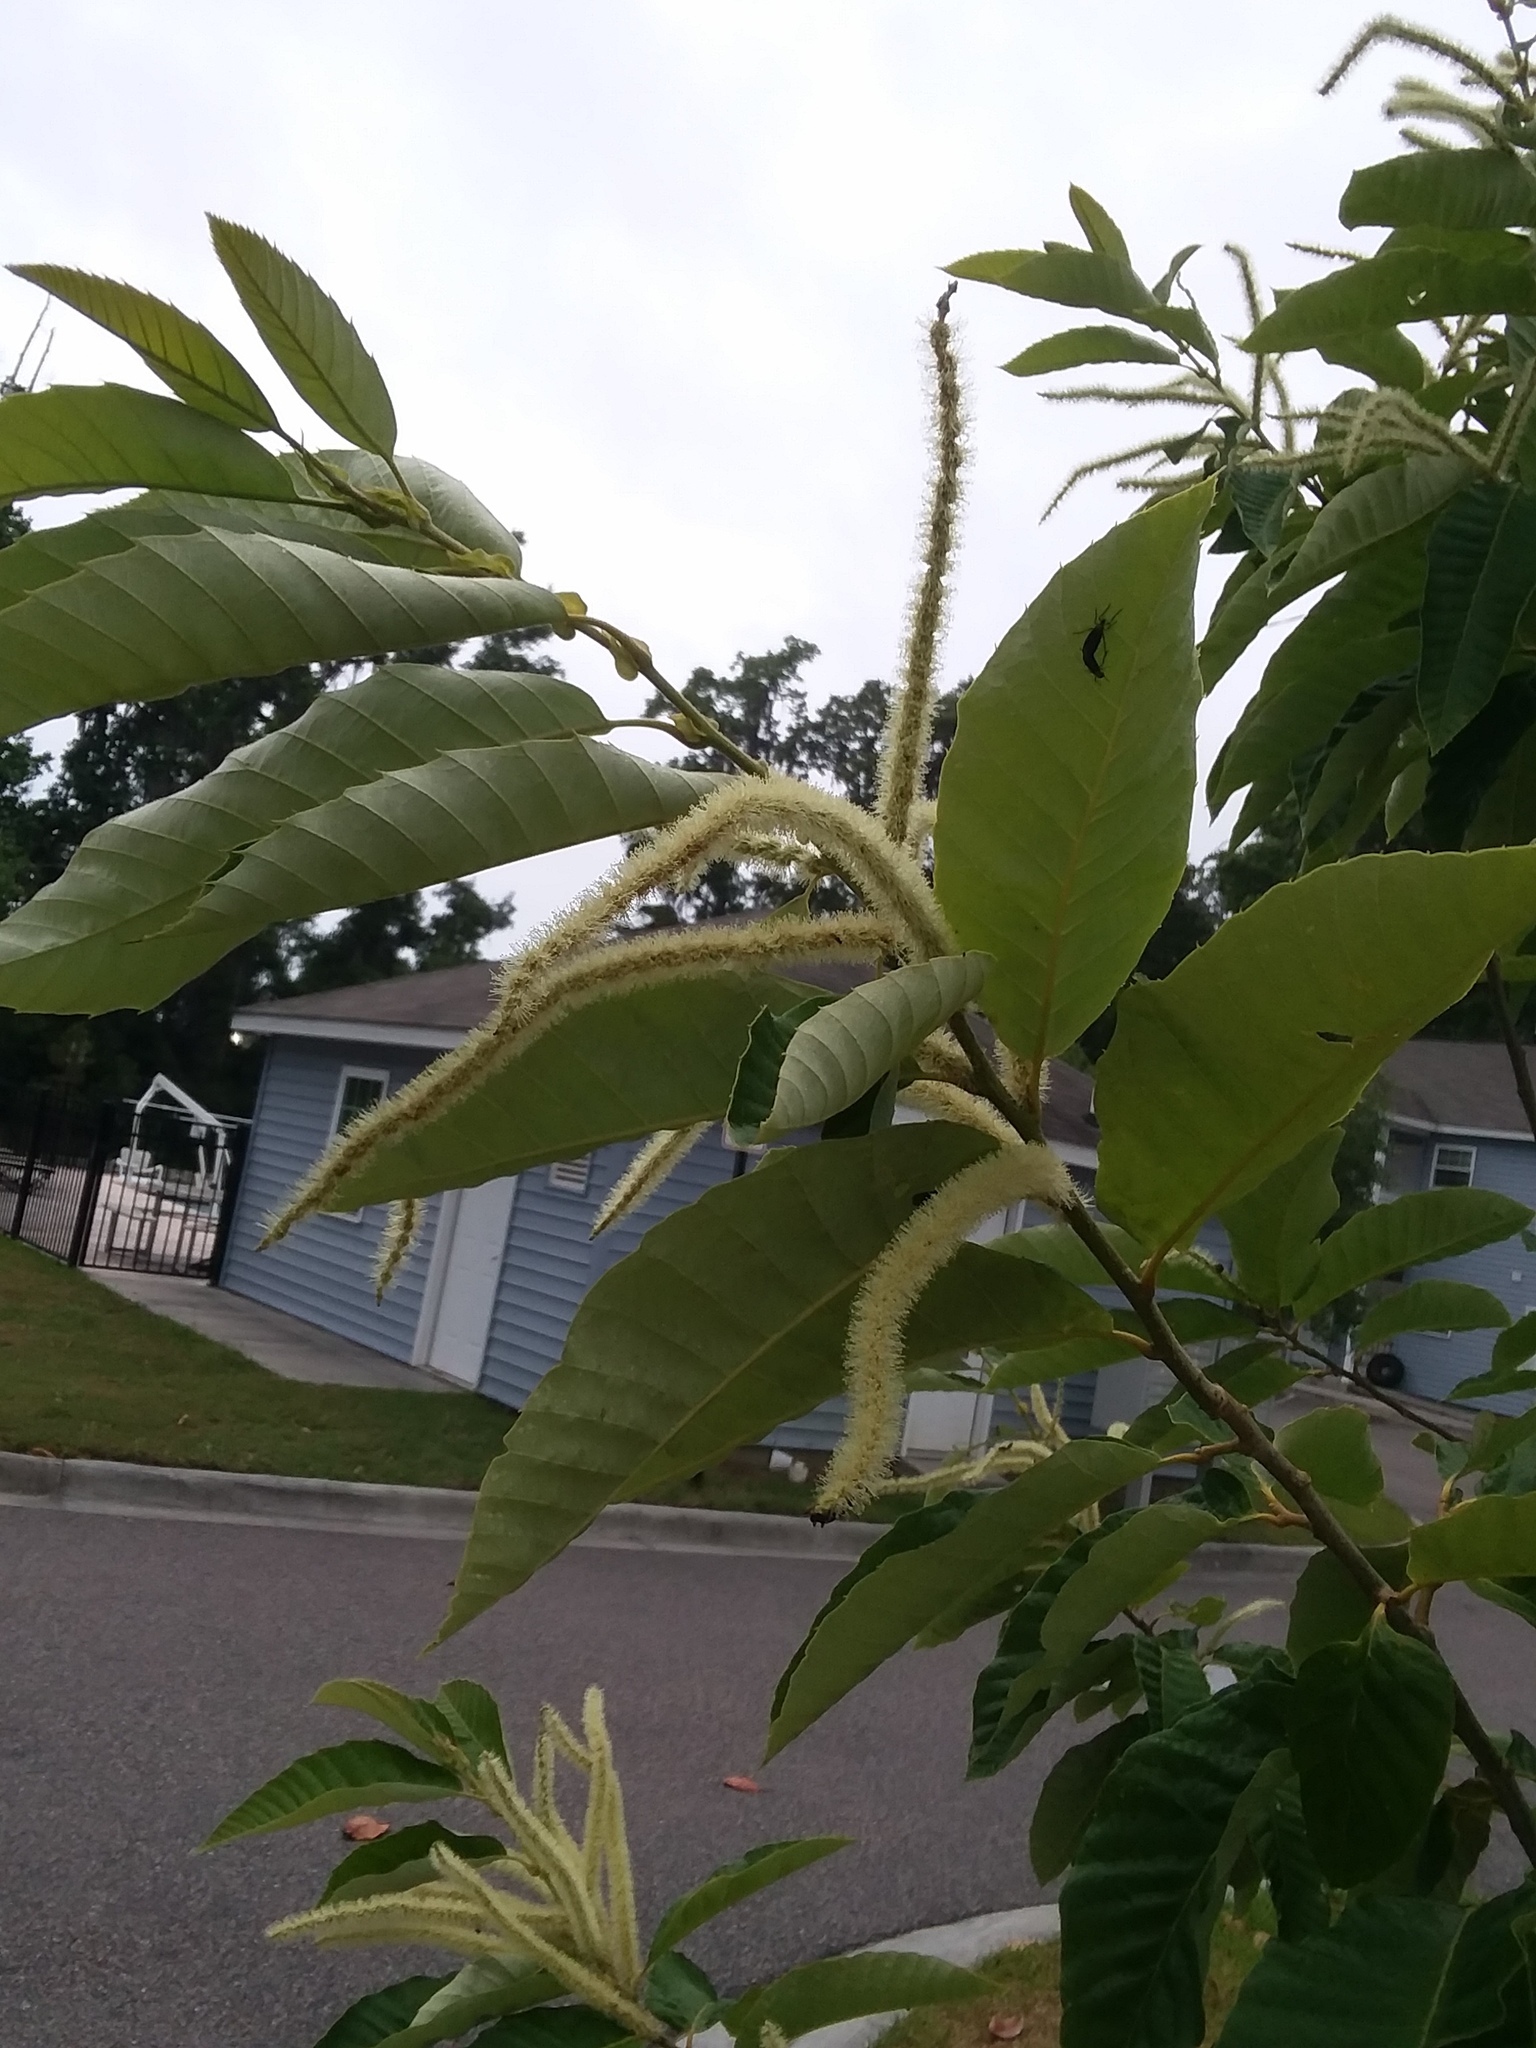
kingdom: Animalia
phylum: Arthropoda
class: Insecta
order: Diptera
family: Bibionidae
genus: Plecia
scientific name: Plecia nearctica
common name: March fly
